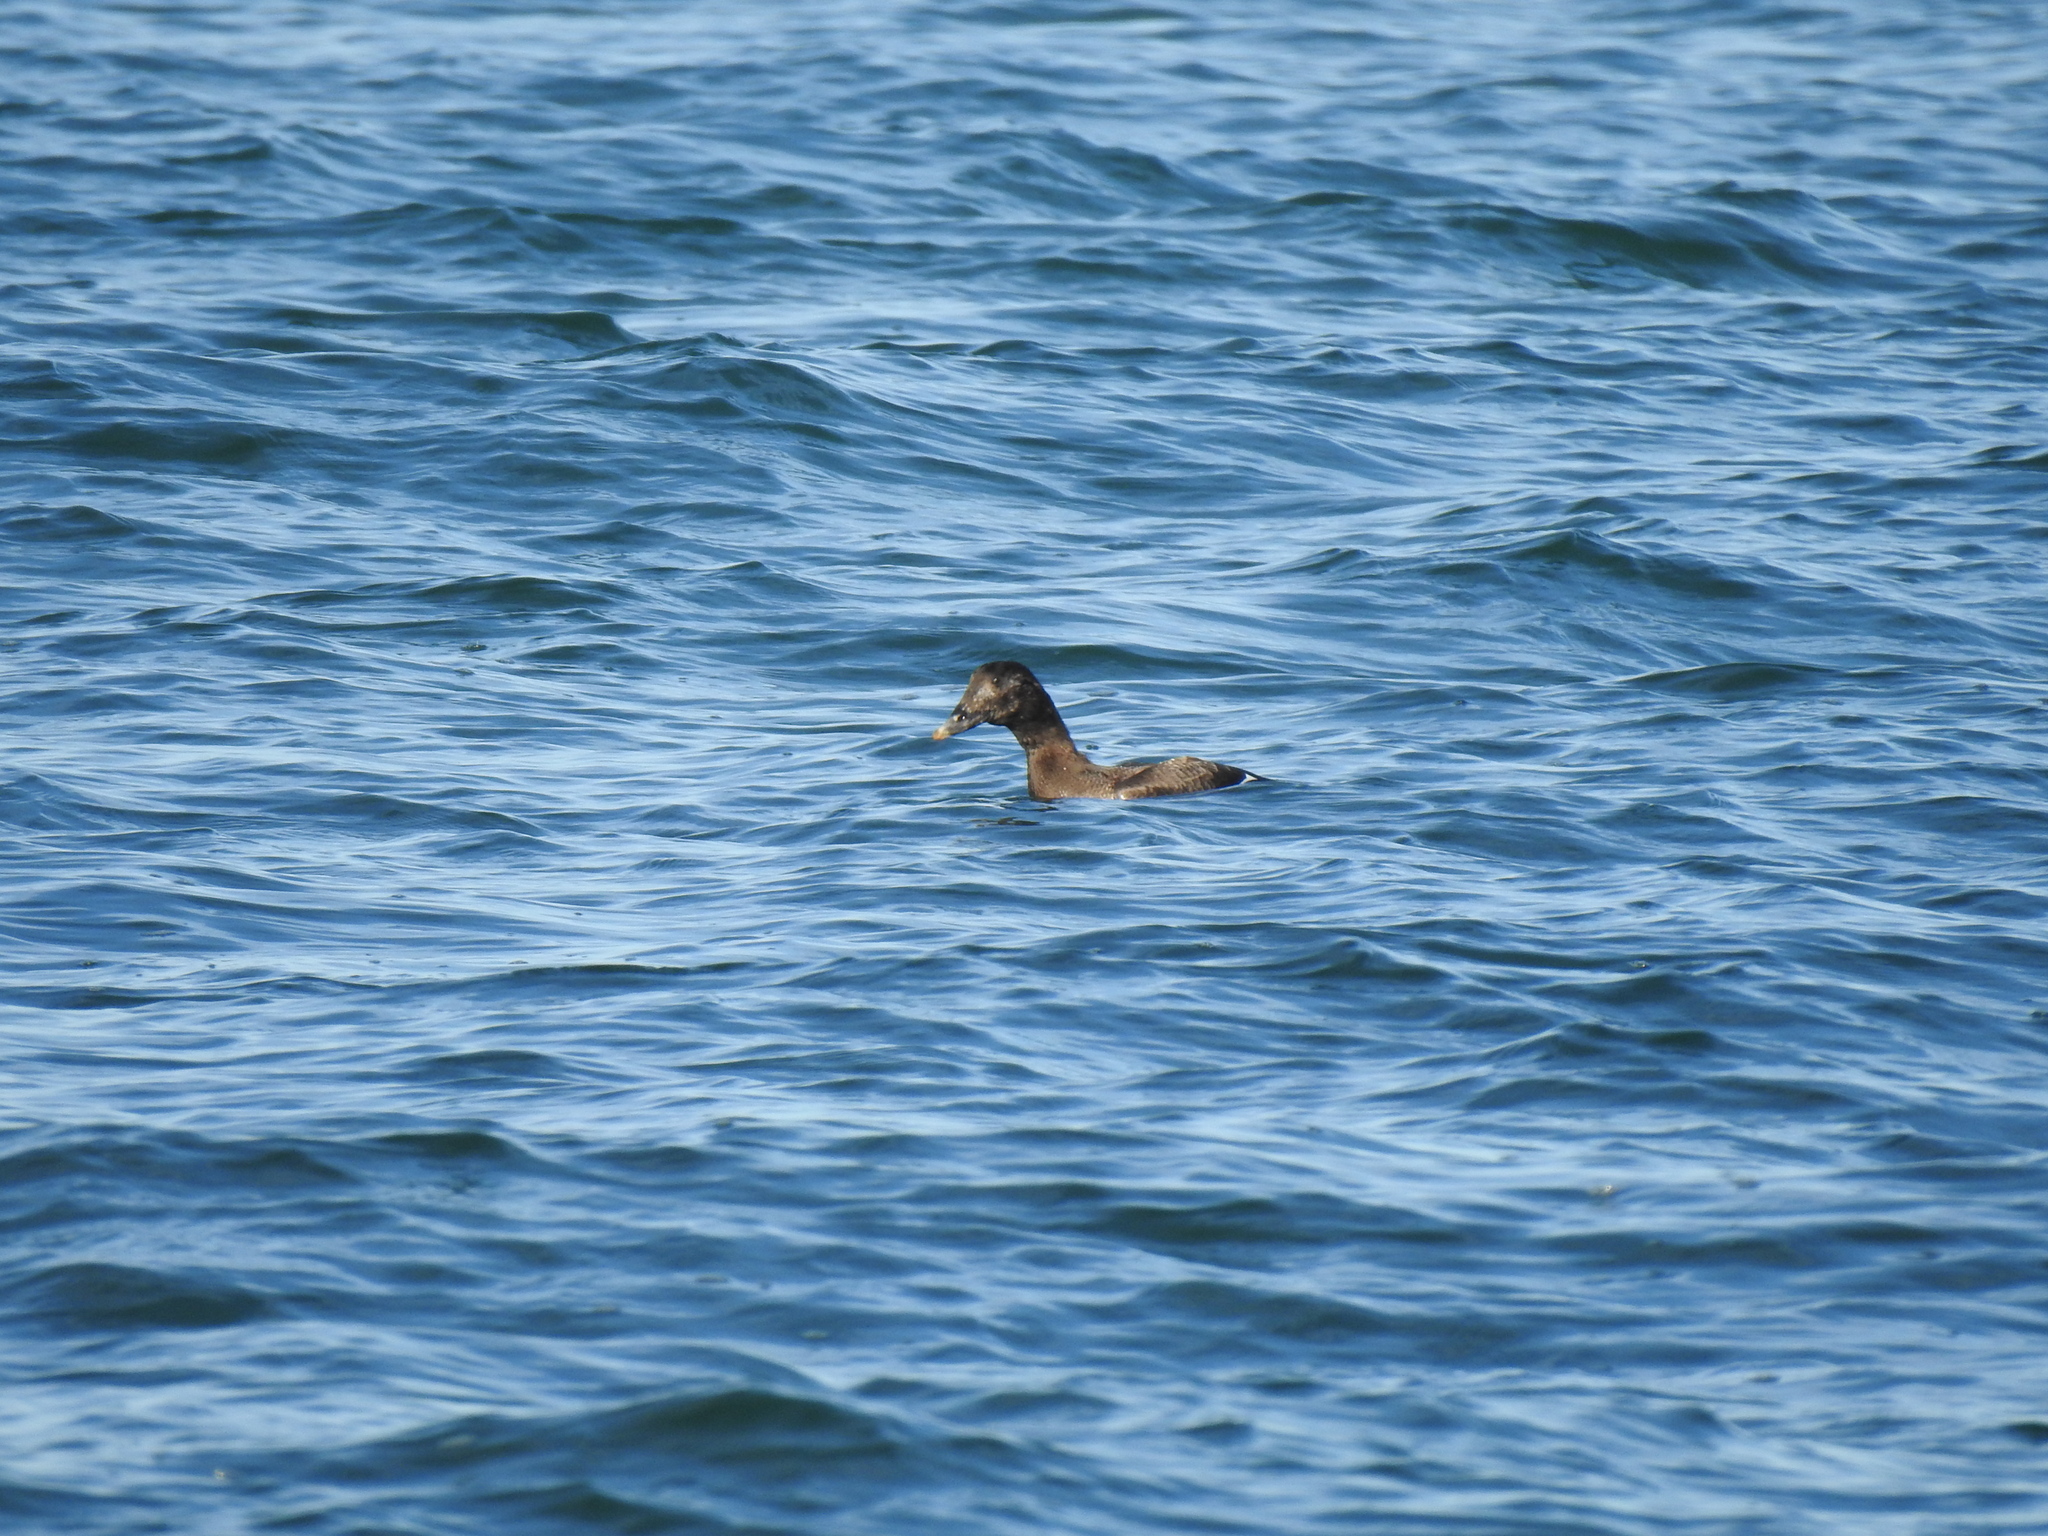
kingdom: Animalia
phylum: Chordata
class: Aves
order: Anseriformes
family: Anatidae
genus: Melanitta
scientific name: Melanitta deglandi
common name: White-winged scoter
